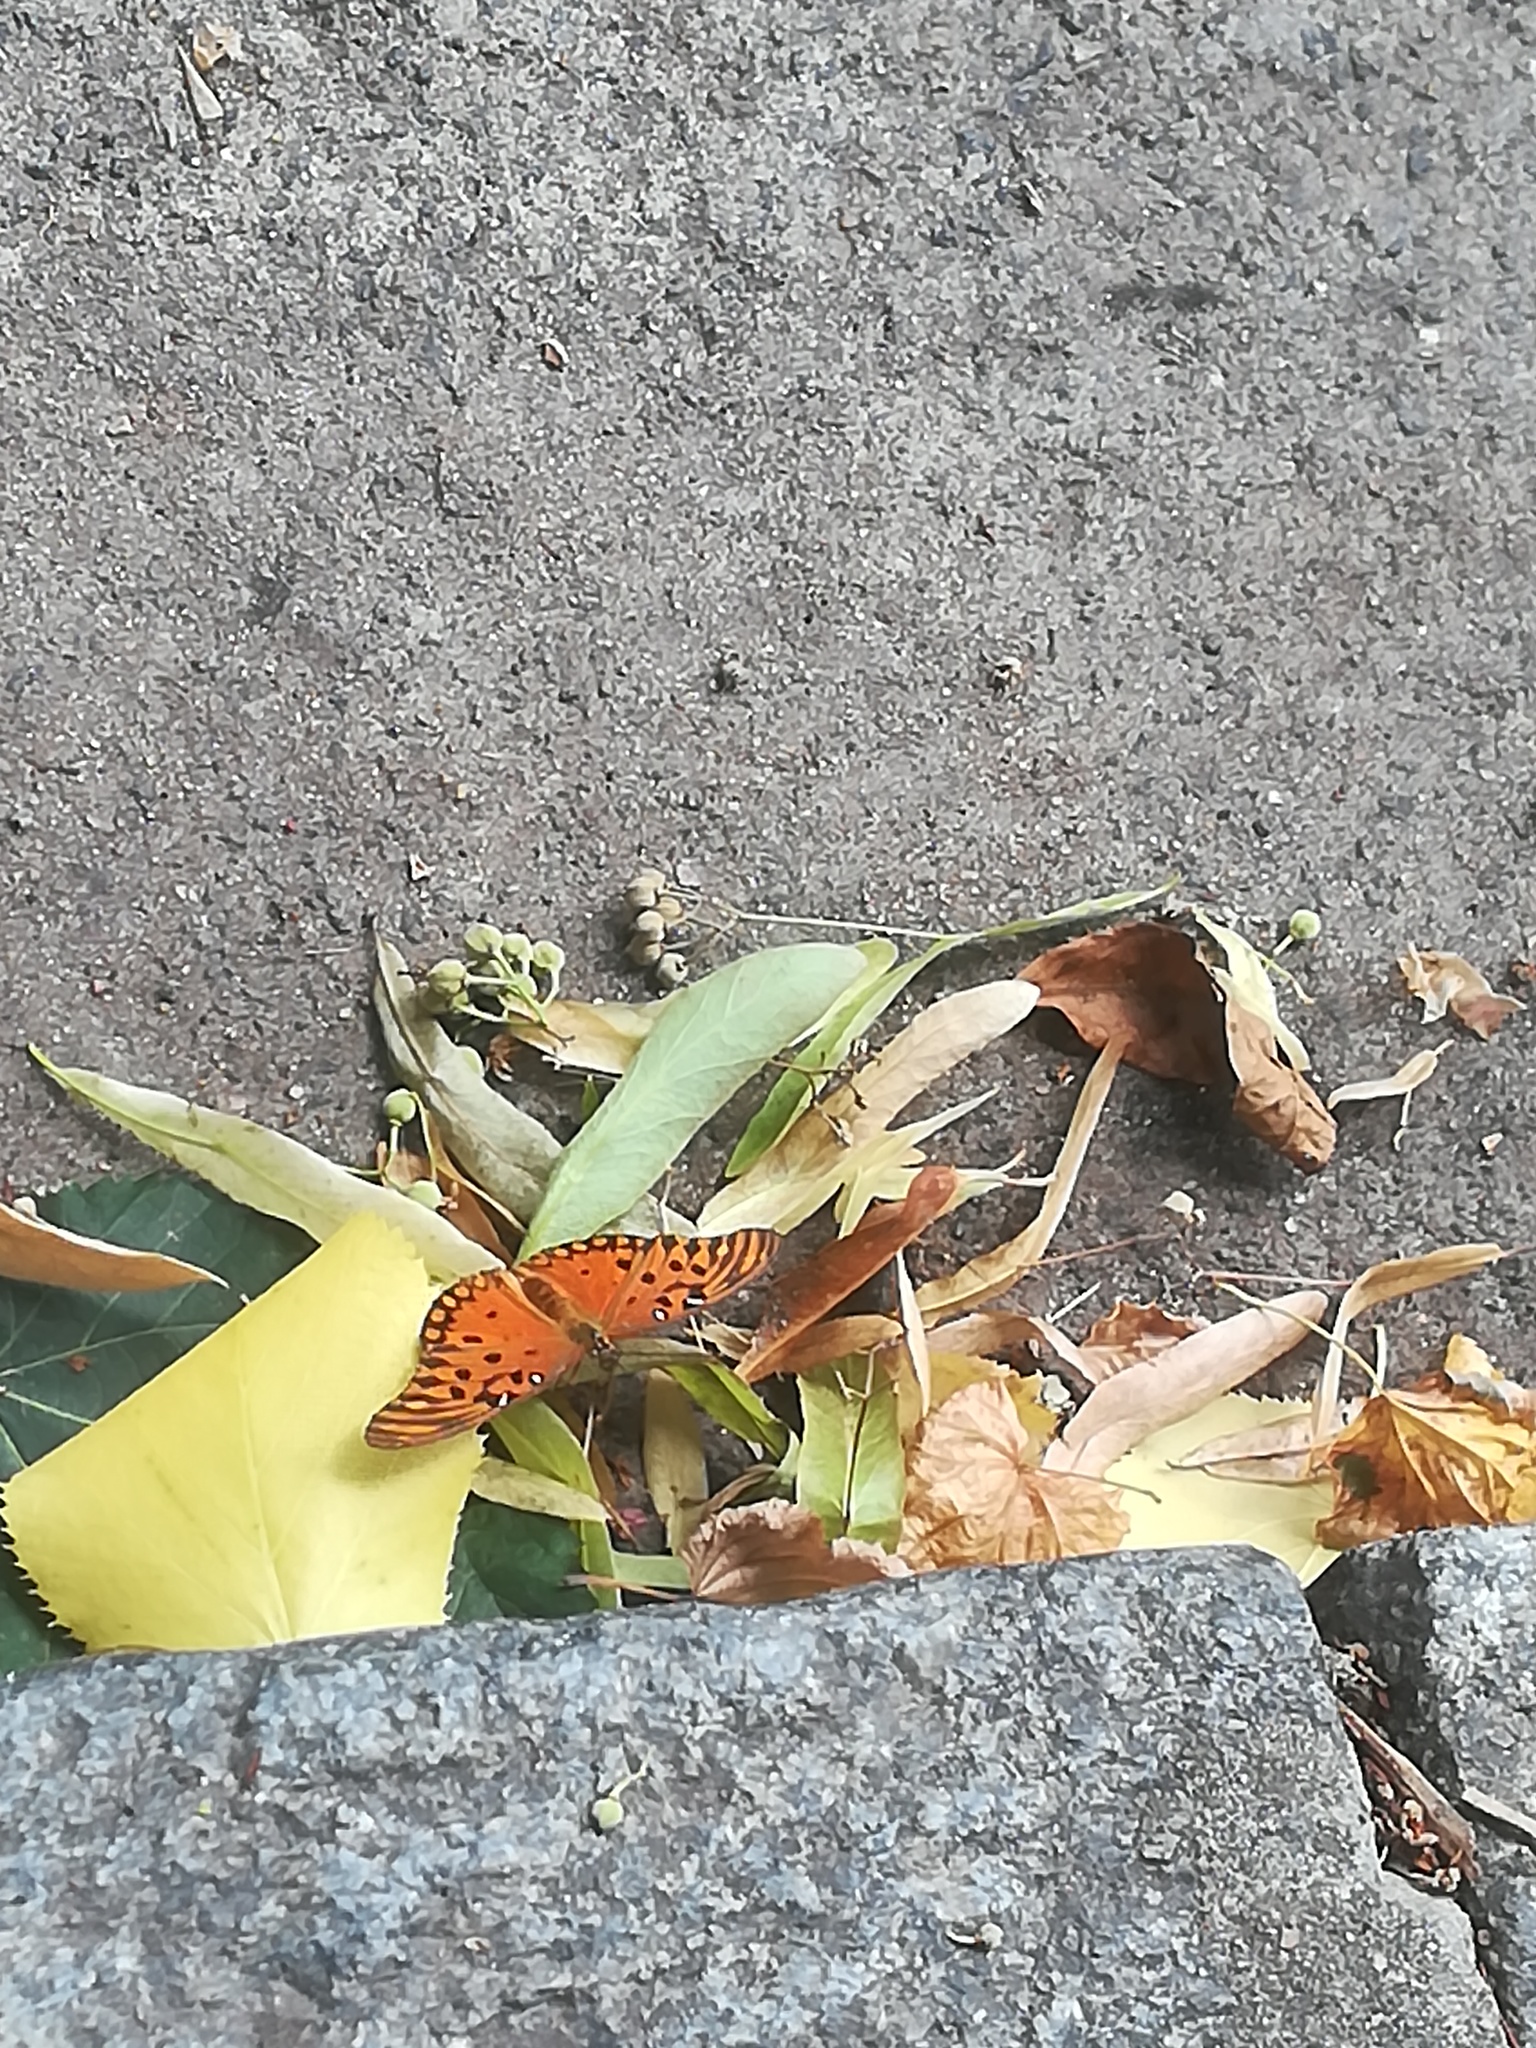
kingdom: Animalia
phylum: Arthropoda
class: Insecta
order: Lepidoptera
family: Nymphalidae
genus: Dione
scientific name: Dione vanillae
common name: Gulf fritillary
